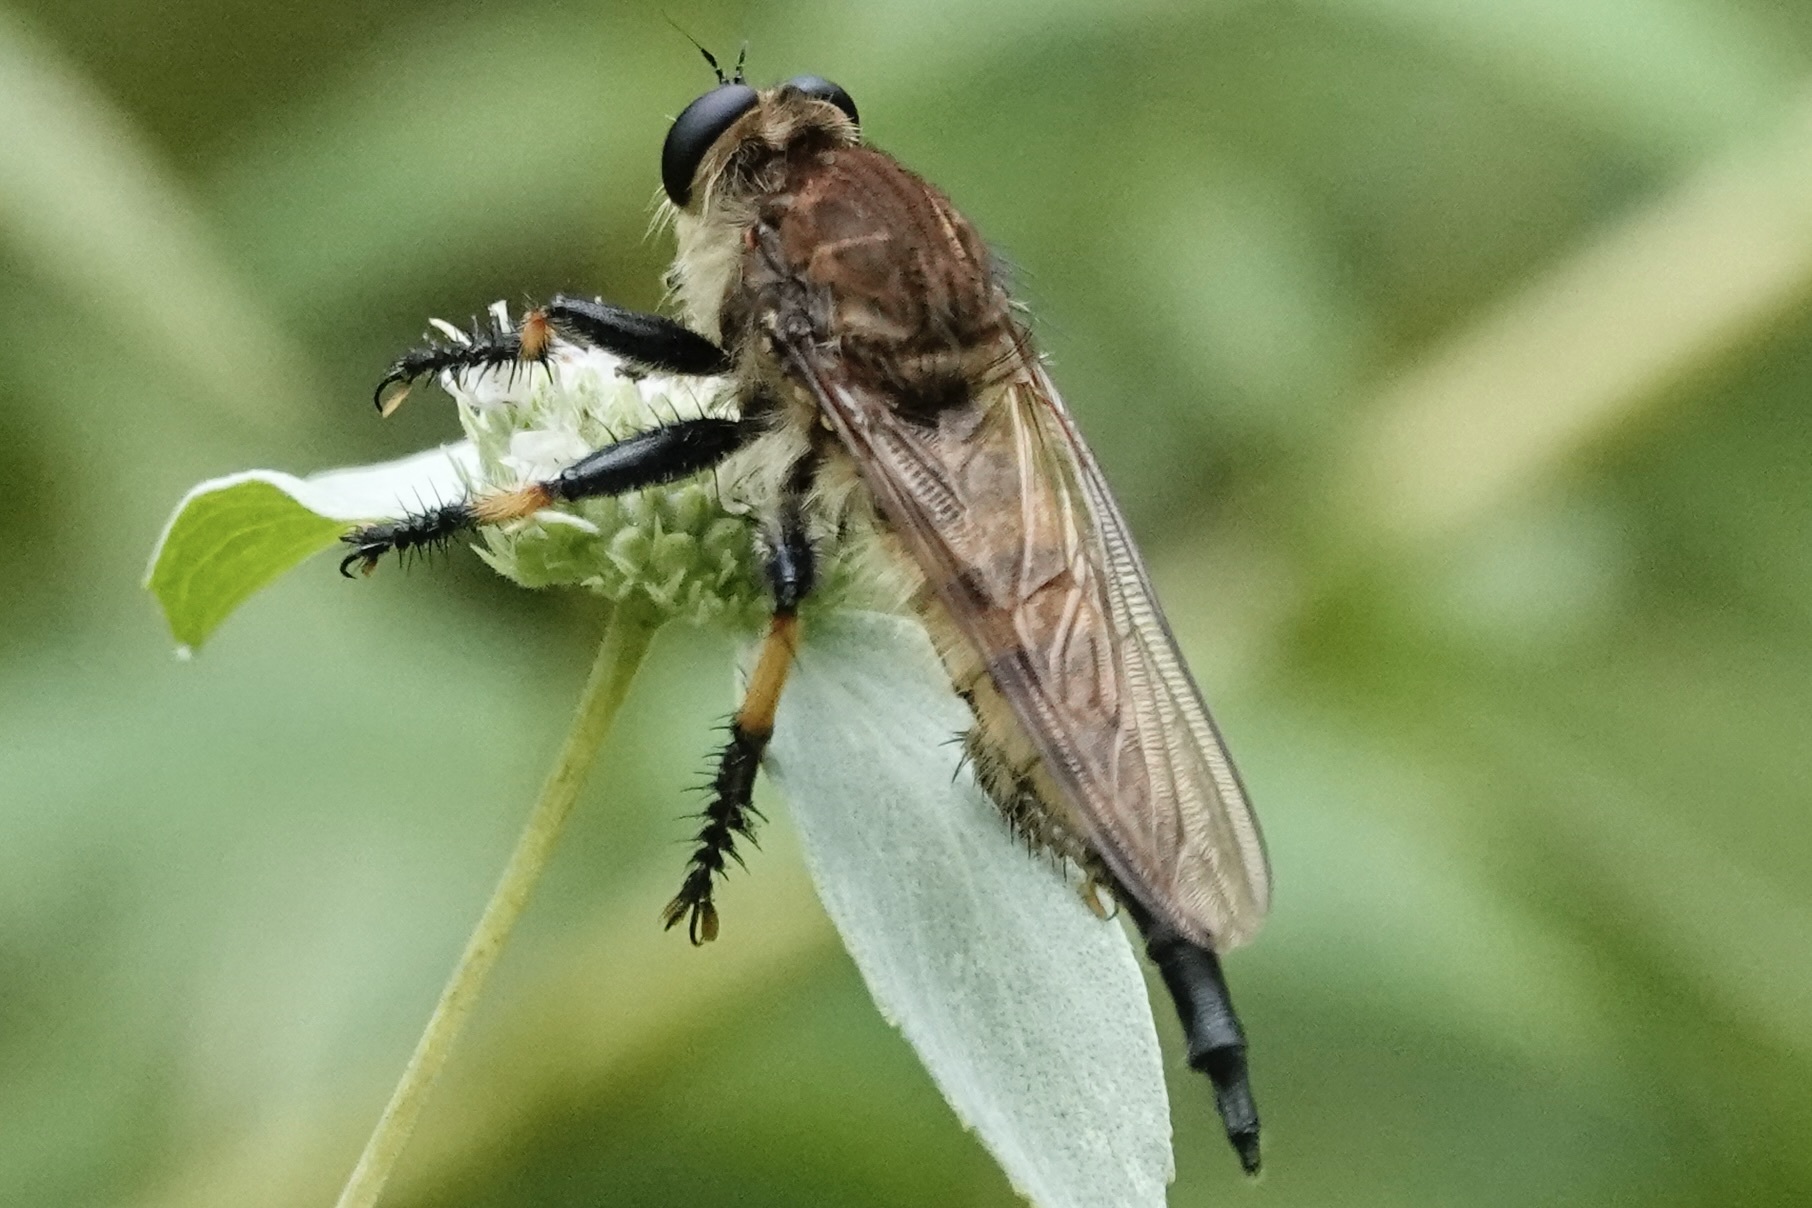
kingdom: Animalia
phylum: Arthropoda
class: Insecta
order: Diptera
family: Asilidae
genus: Promachus
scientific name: Promachus rufipes
